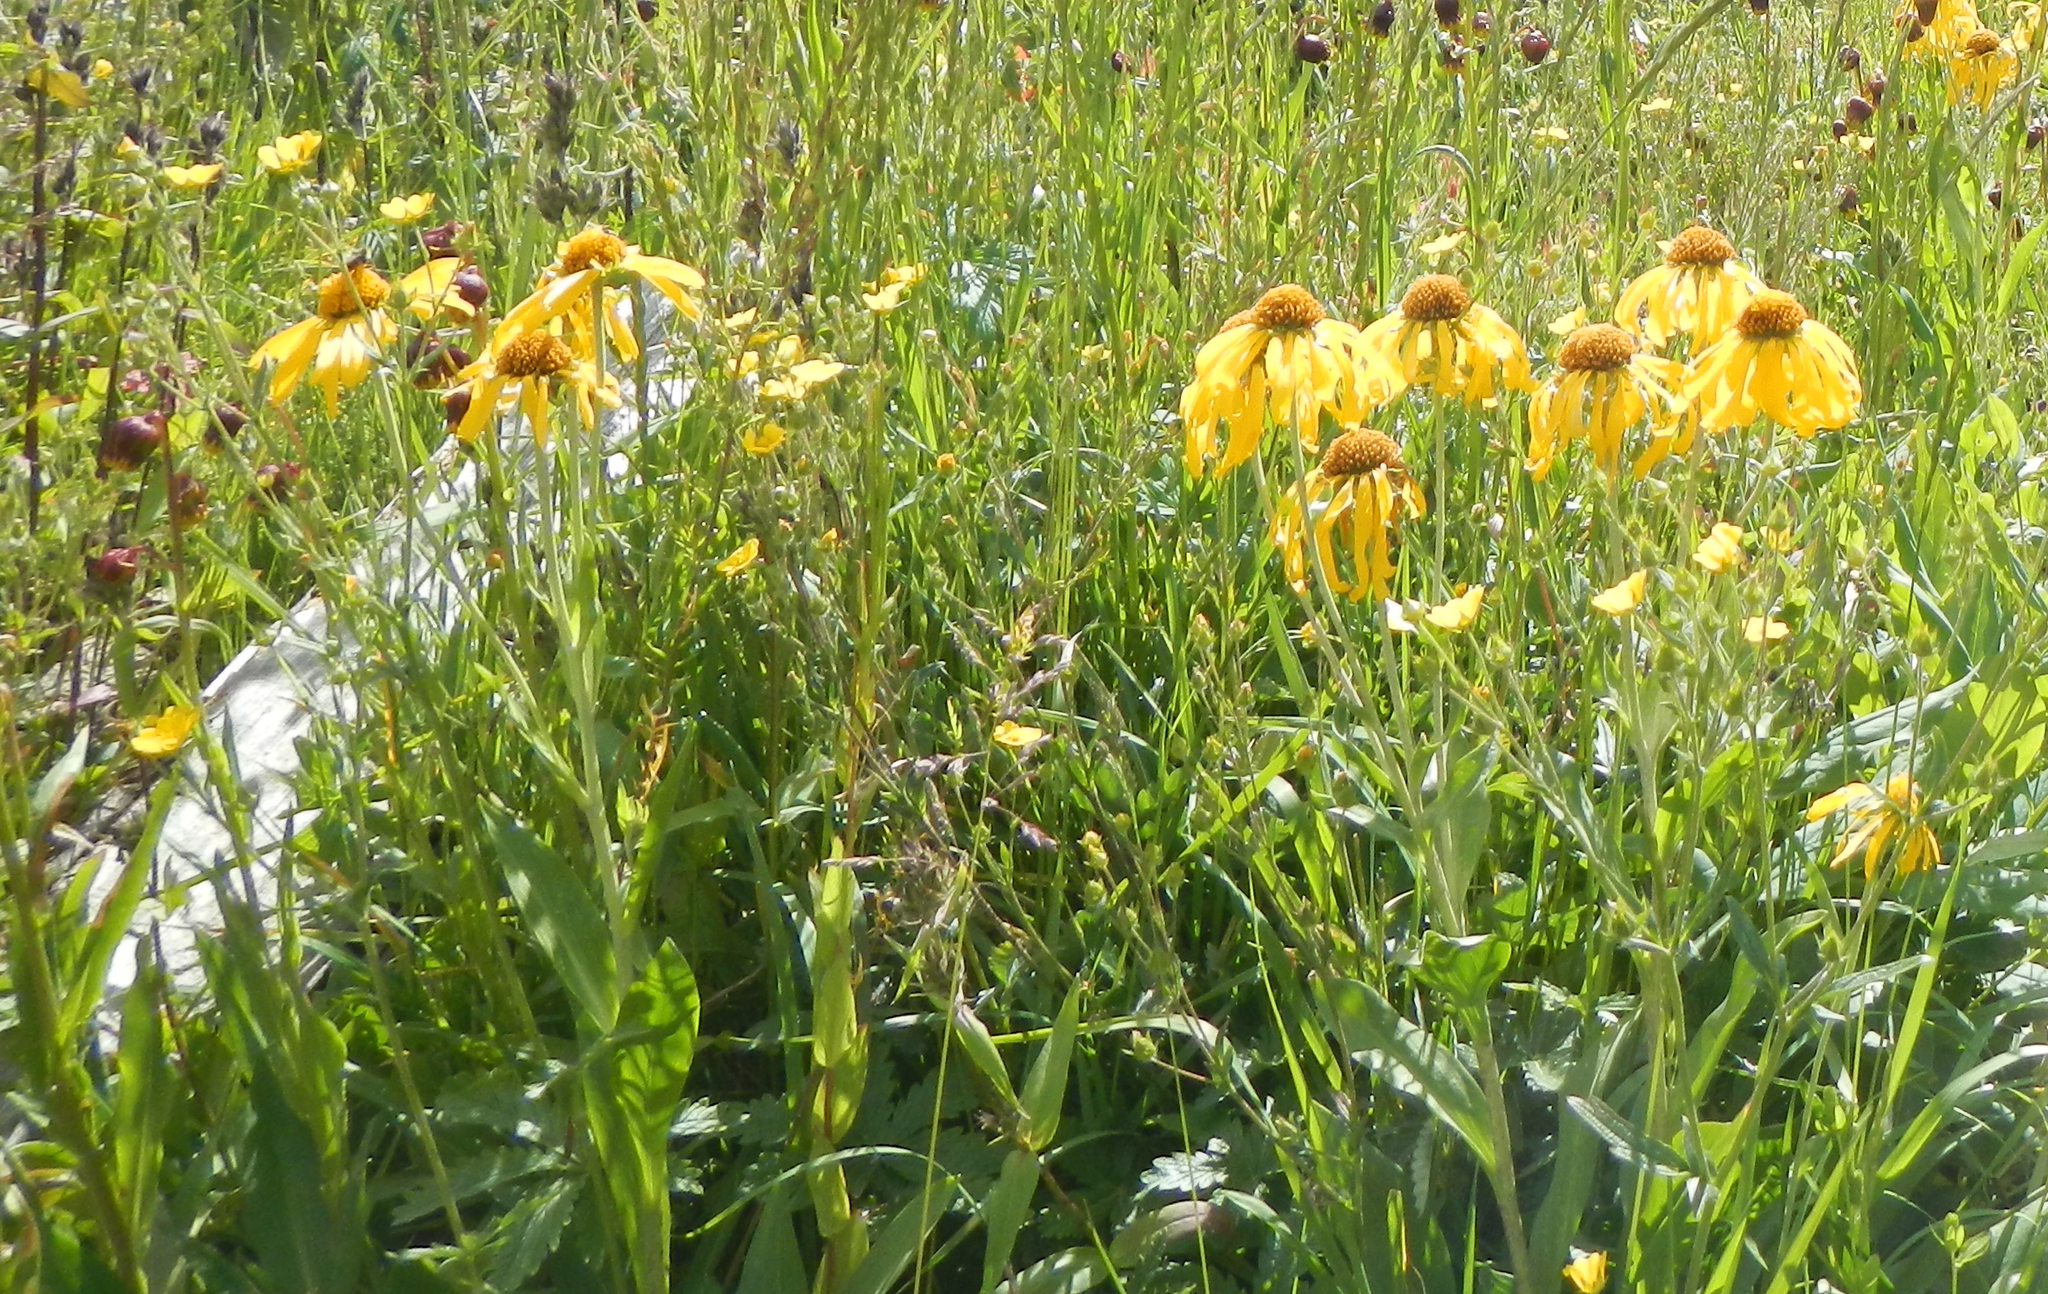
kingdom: Plantae
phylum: Tracheophyta
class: Magnoliopsida
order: Asterales
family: Asteraceae
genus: Hymenoxys
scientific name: Hymenoxys hoopesii
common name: Orange-sneezeweed
